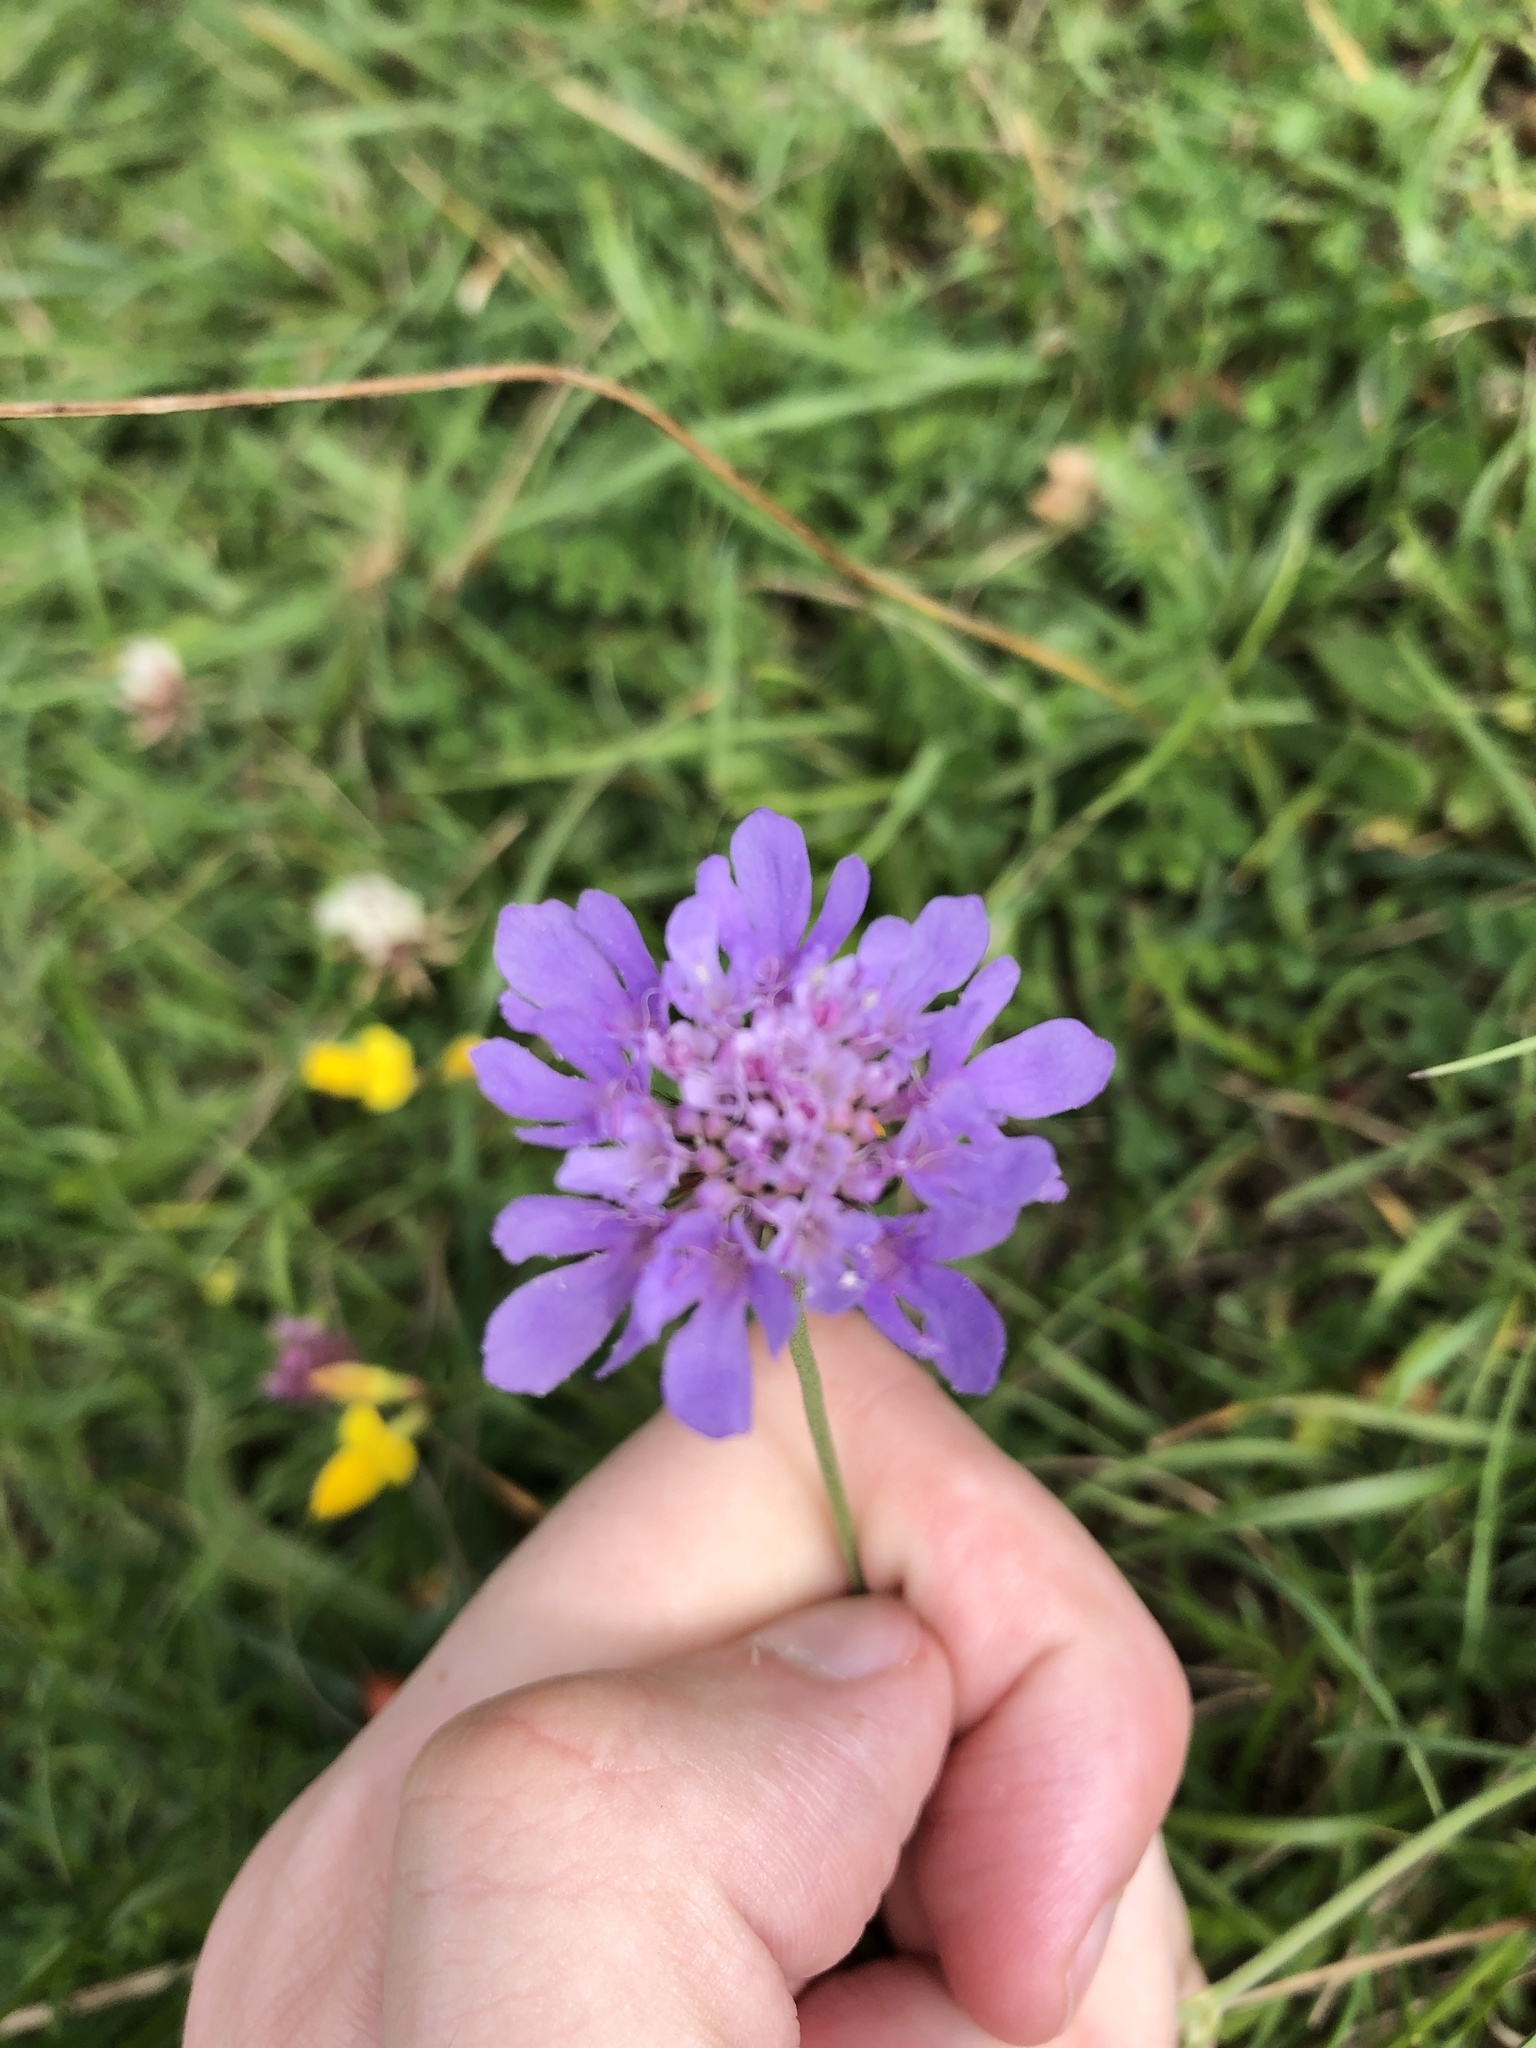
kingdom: Plantae
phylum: Tracheophyta
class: Magnoliopsida
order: Dipsacales
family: Caprifoliaceae
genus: Knautia
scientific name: Knautia arvensis
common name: Field scabiosa
